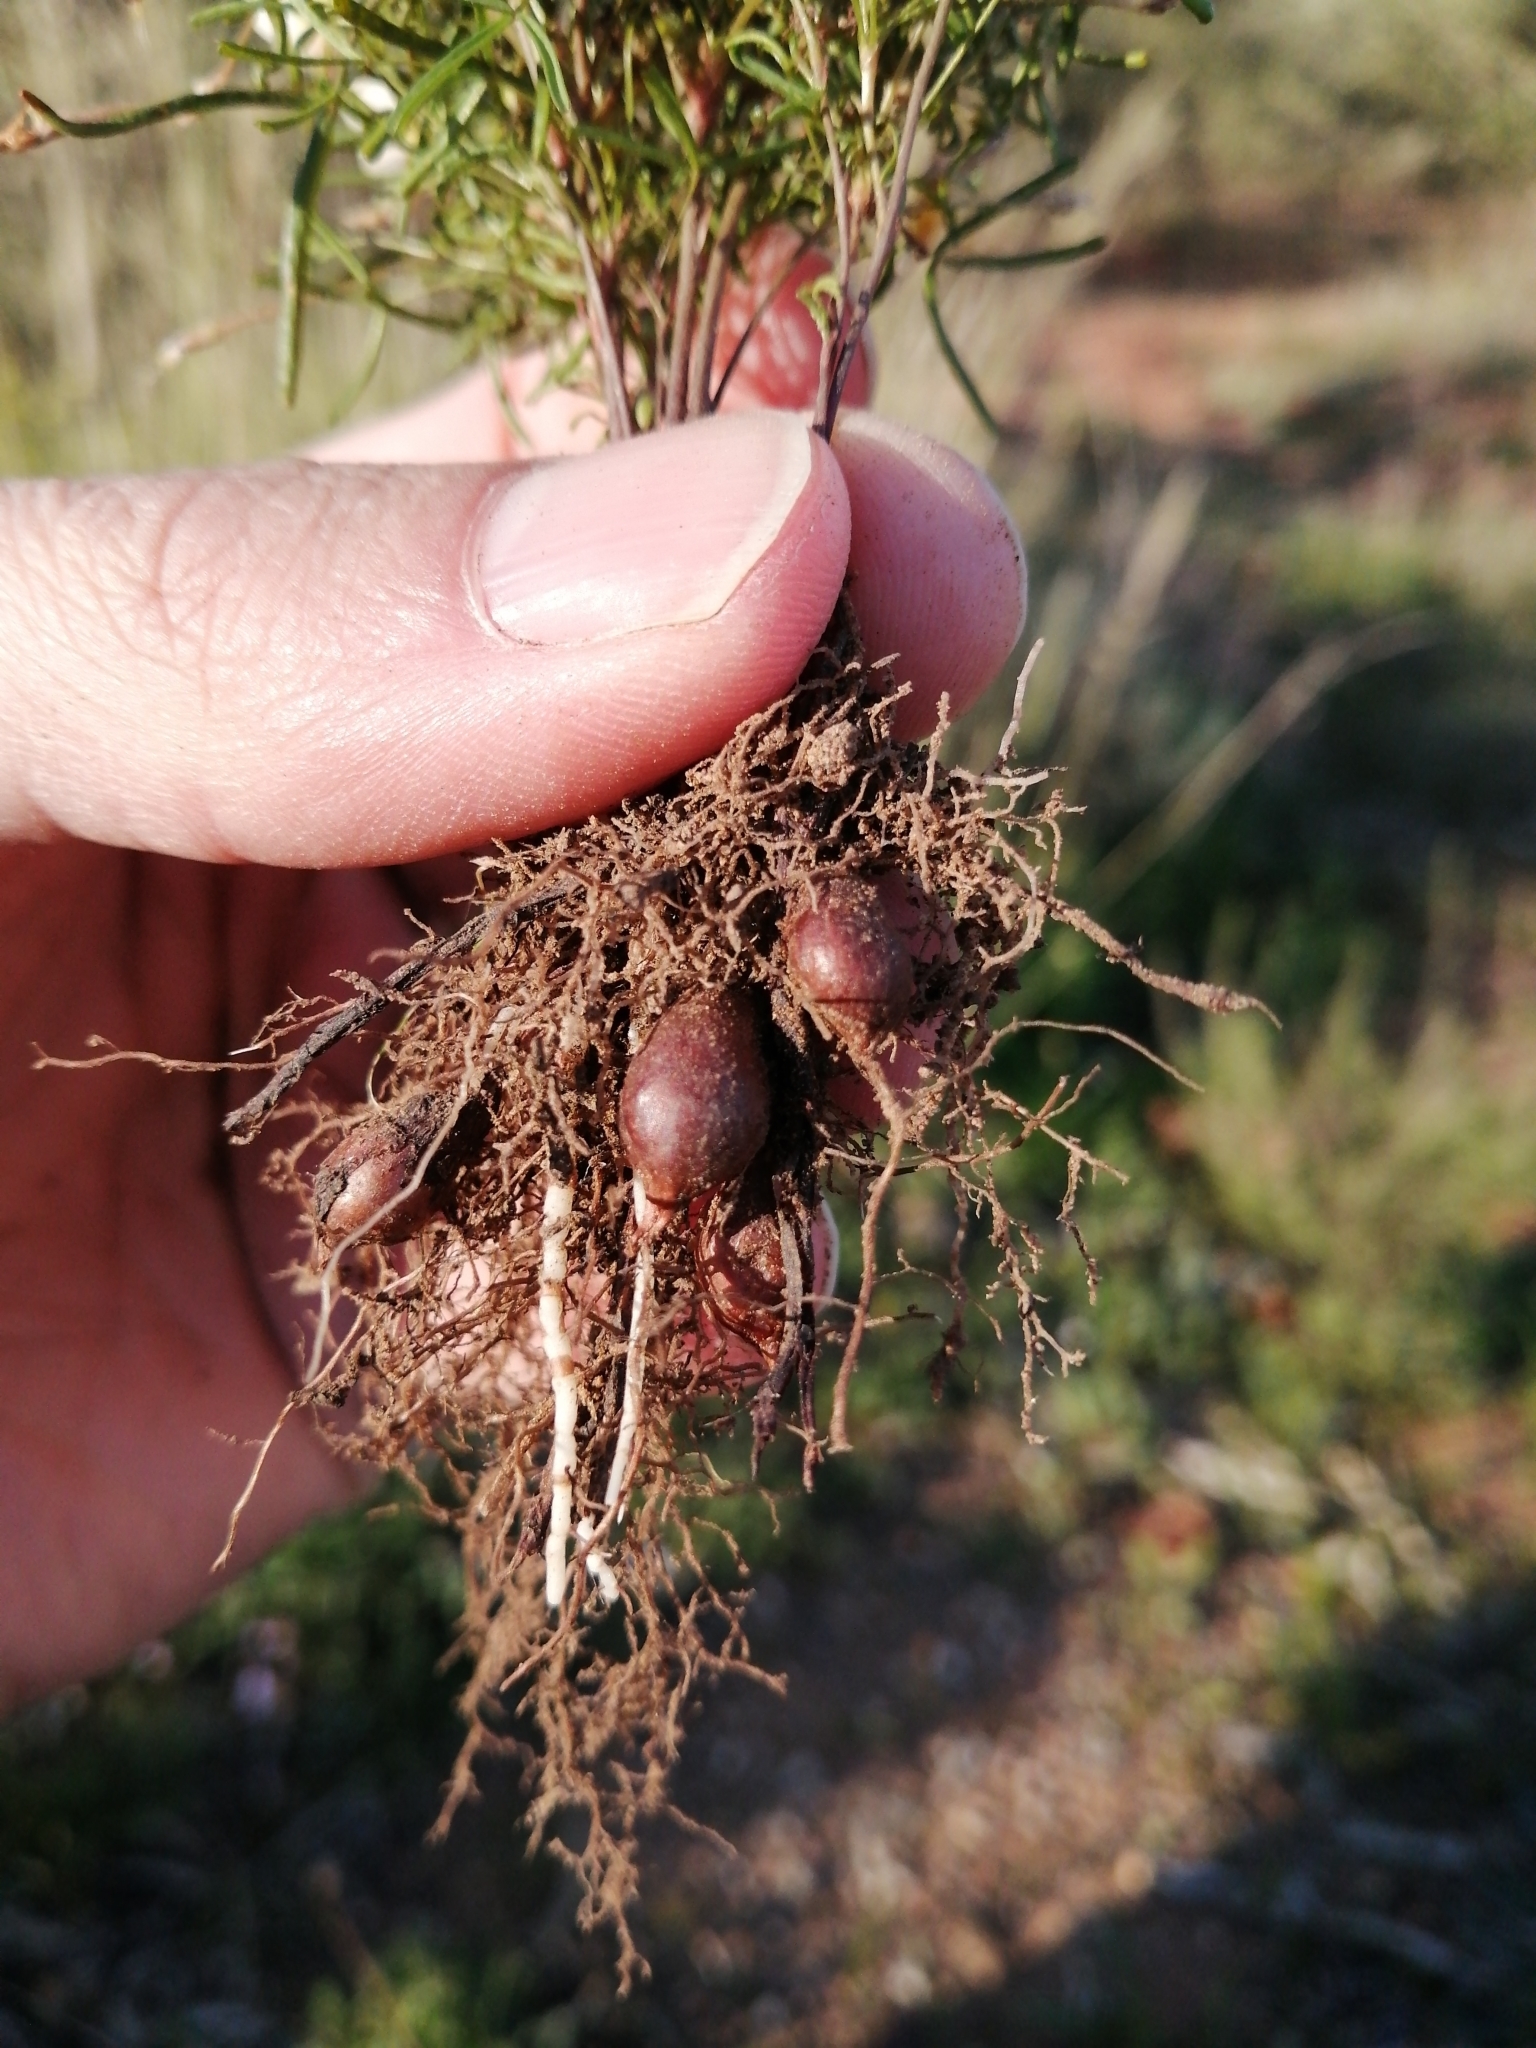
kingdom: Plantae
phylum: Tracheophyta
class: Magnoliopsida
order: Oxalidales
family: Oxalidaceae
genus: Oxalis
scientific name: Oxalis burkei
